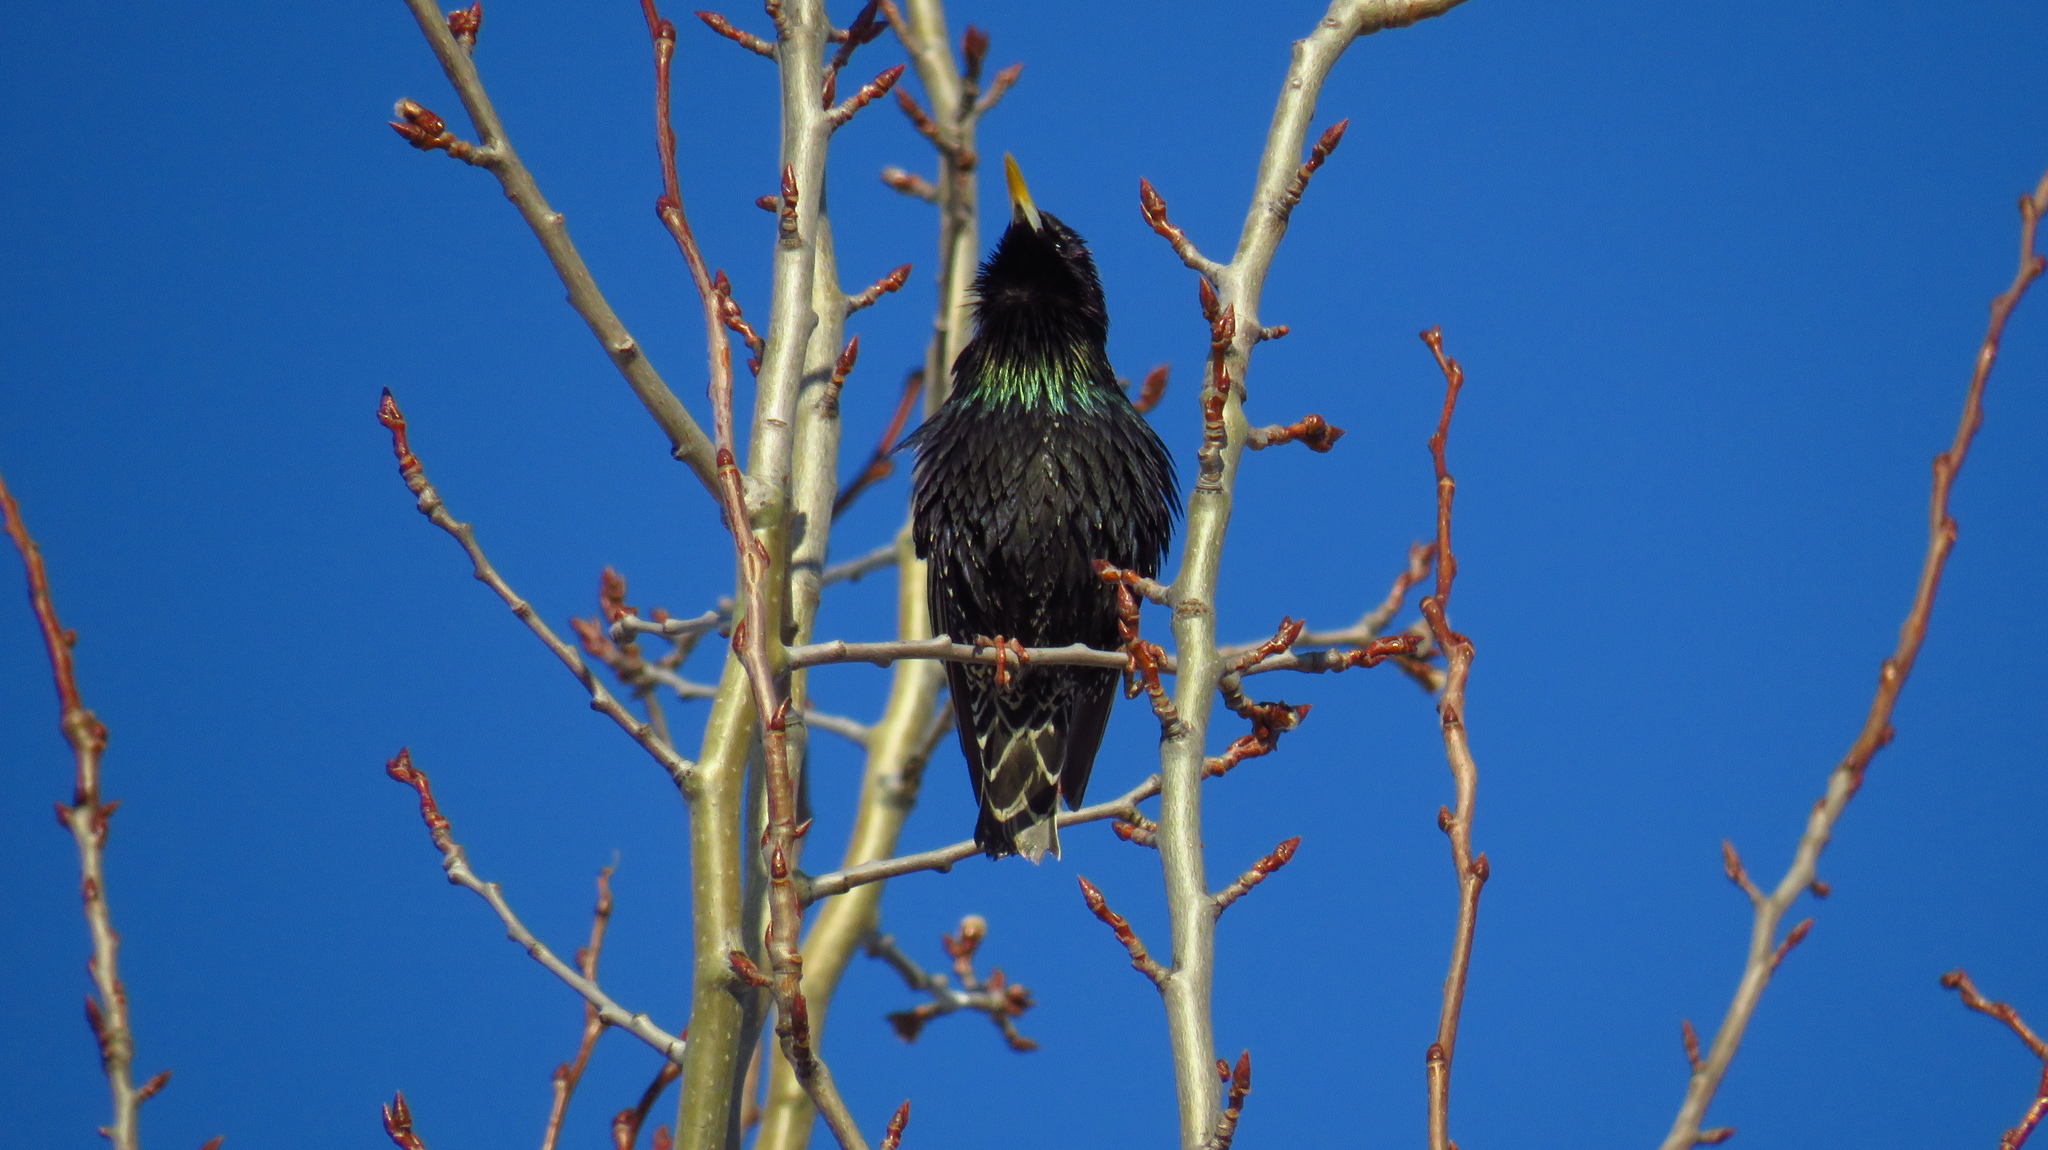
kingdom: Animalia
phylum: Chordata
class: Aves
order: Passeriformes
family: Sturnidae
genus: Sturnus
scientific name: Sturnus vulgaris
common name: Common starling
